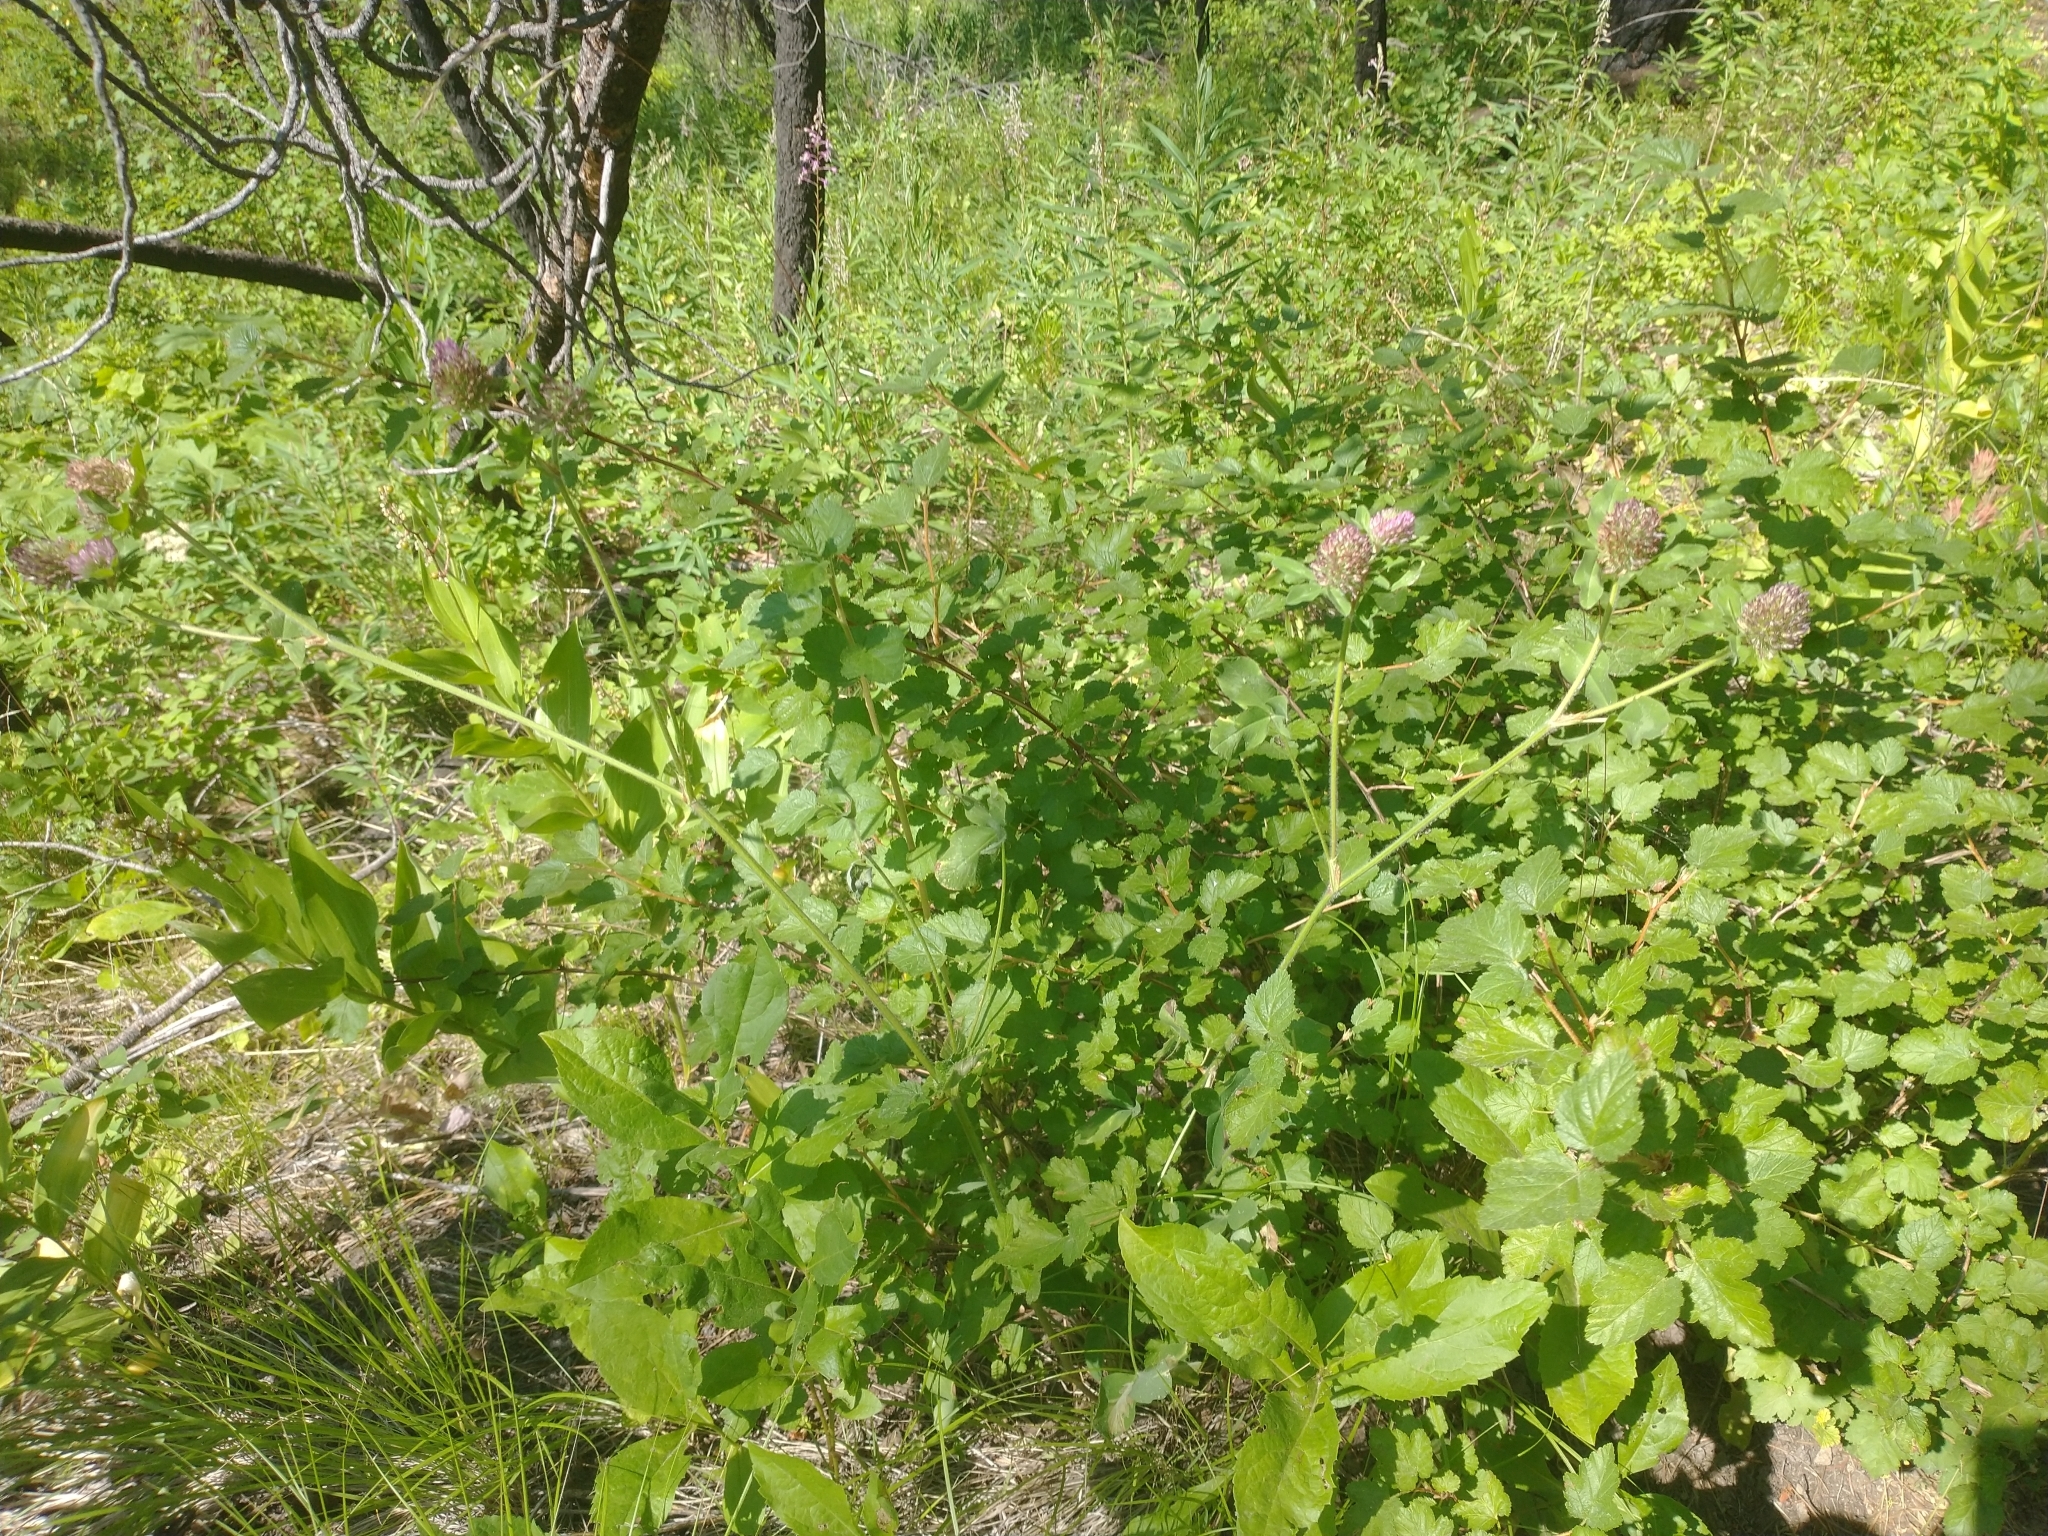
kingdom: Plantae
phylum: Tracheophyta
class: Magnoliopsida
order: Fabales
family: Fabaceae
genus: Trifolium
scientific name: Trifolium pratense
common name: Red clover
